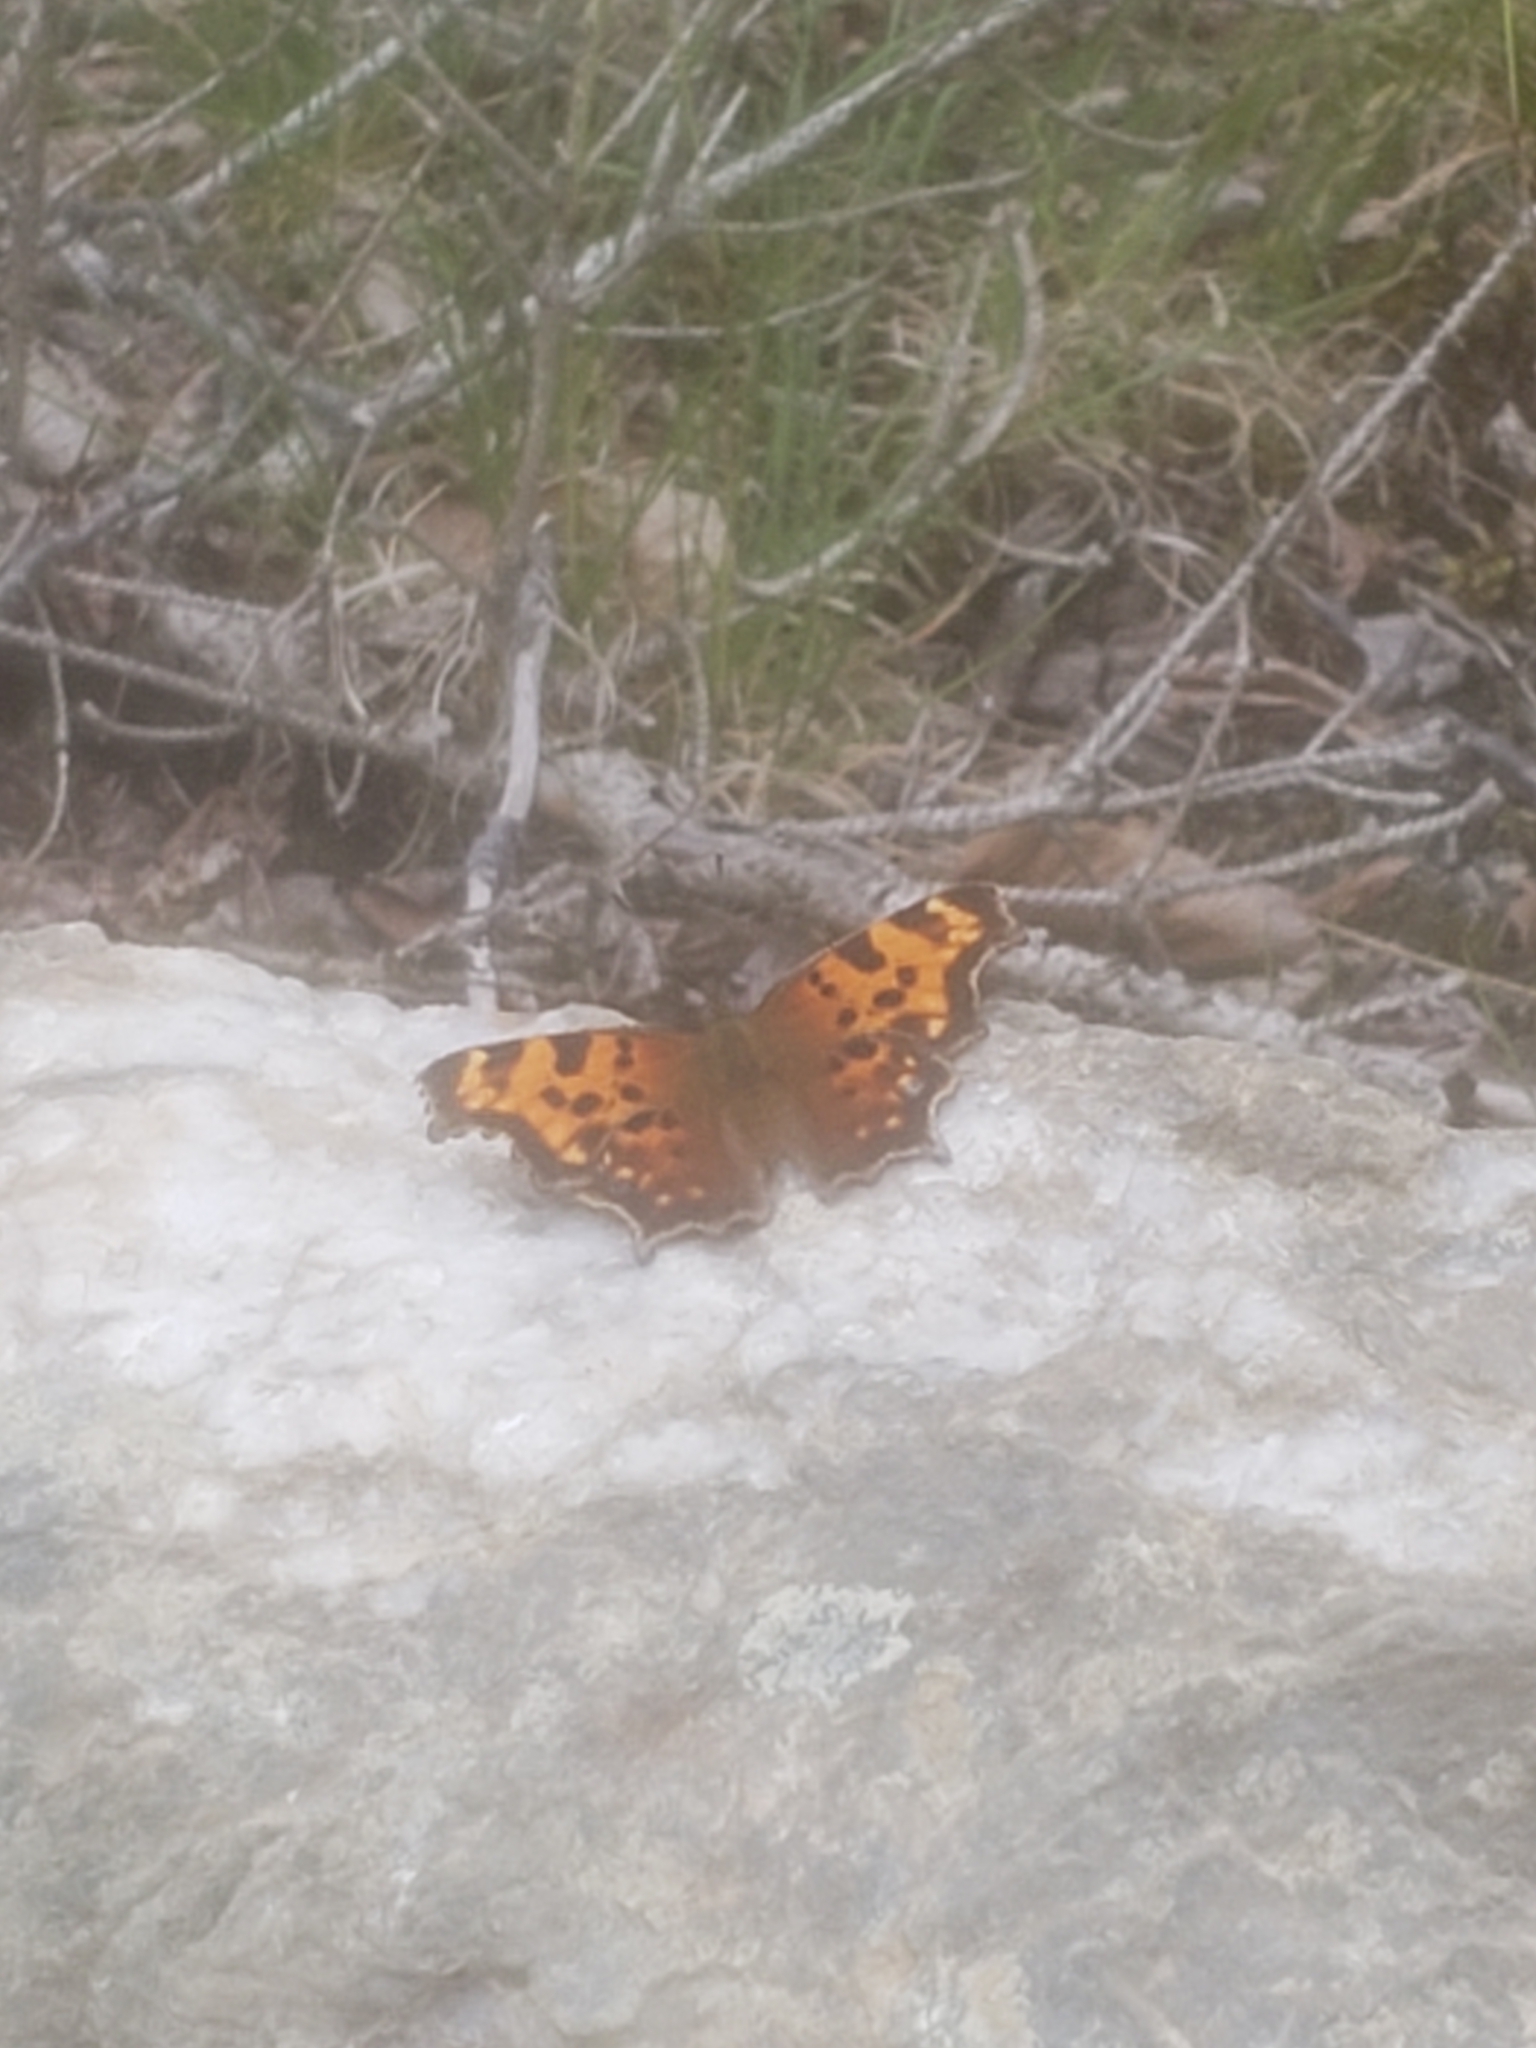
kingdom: Animalia
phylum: Arthropoda
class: Insecta
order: Lepidoptera
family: Nymphalidae
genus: Polygonia
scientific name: Polygonia faunus
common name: Green comma
